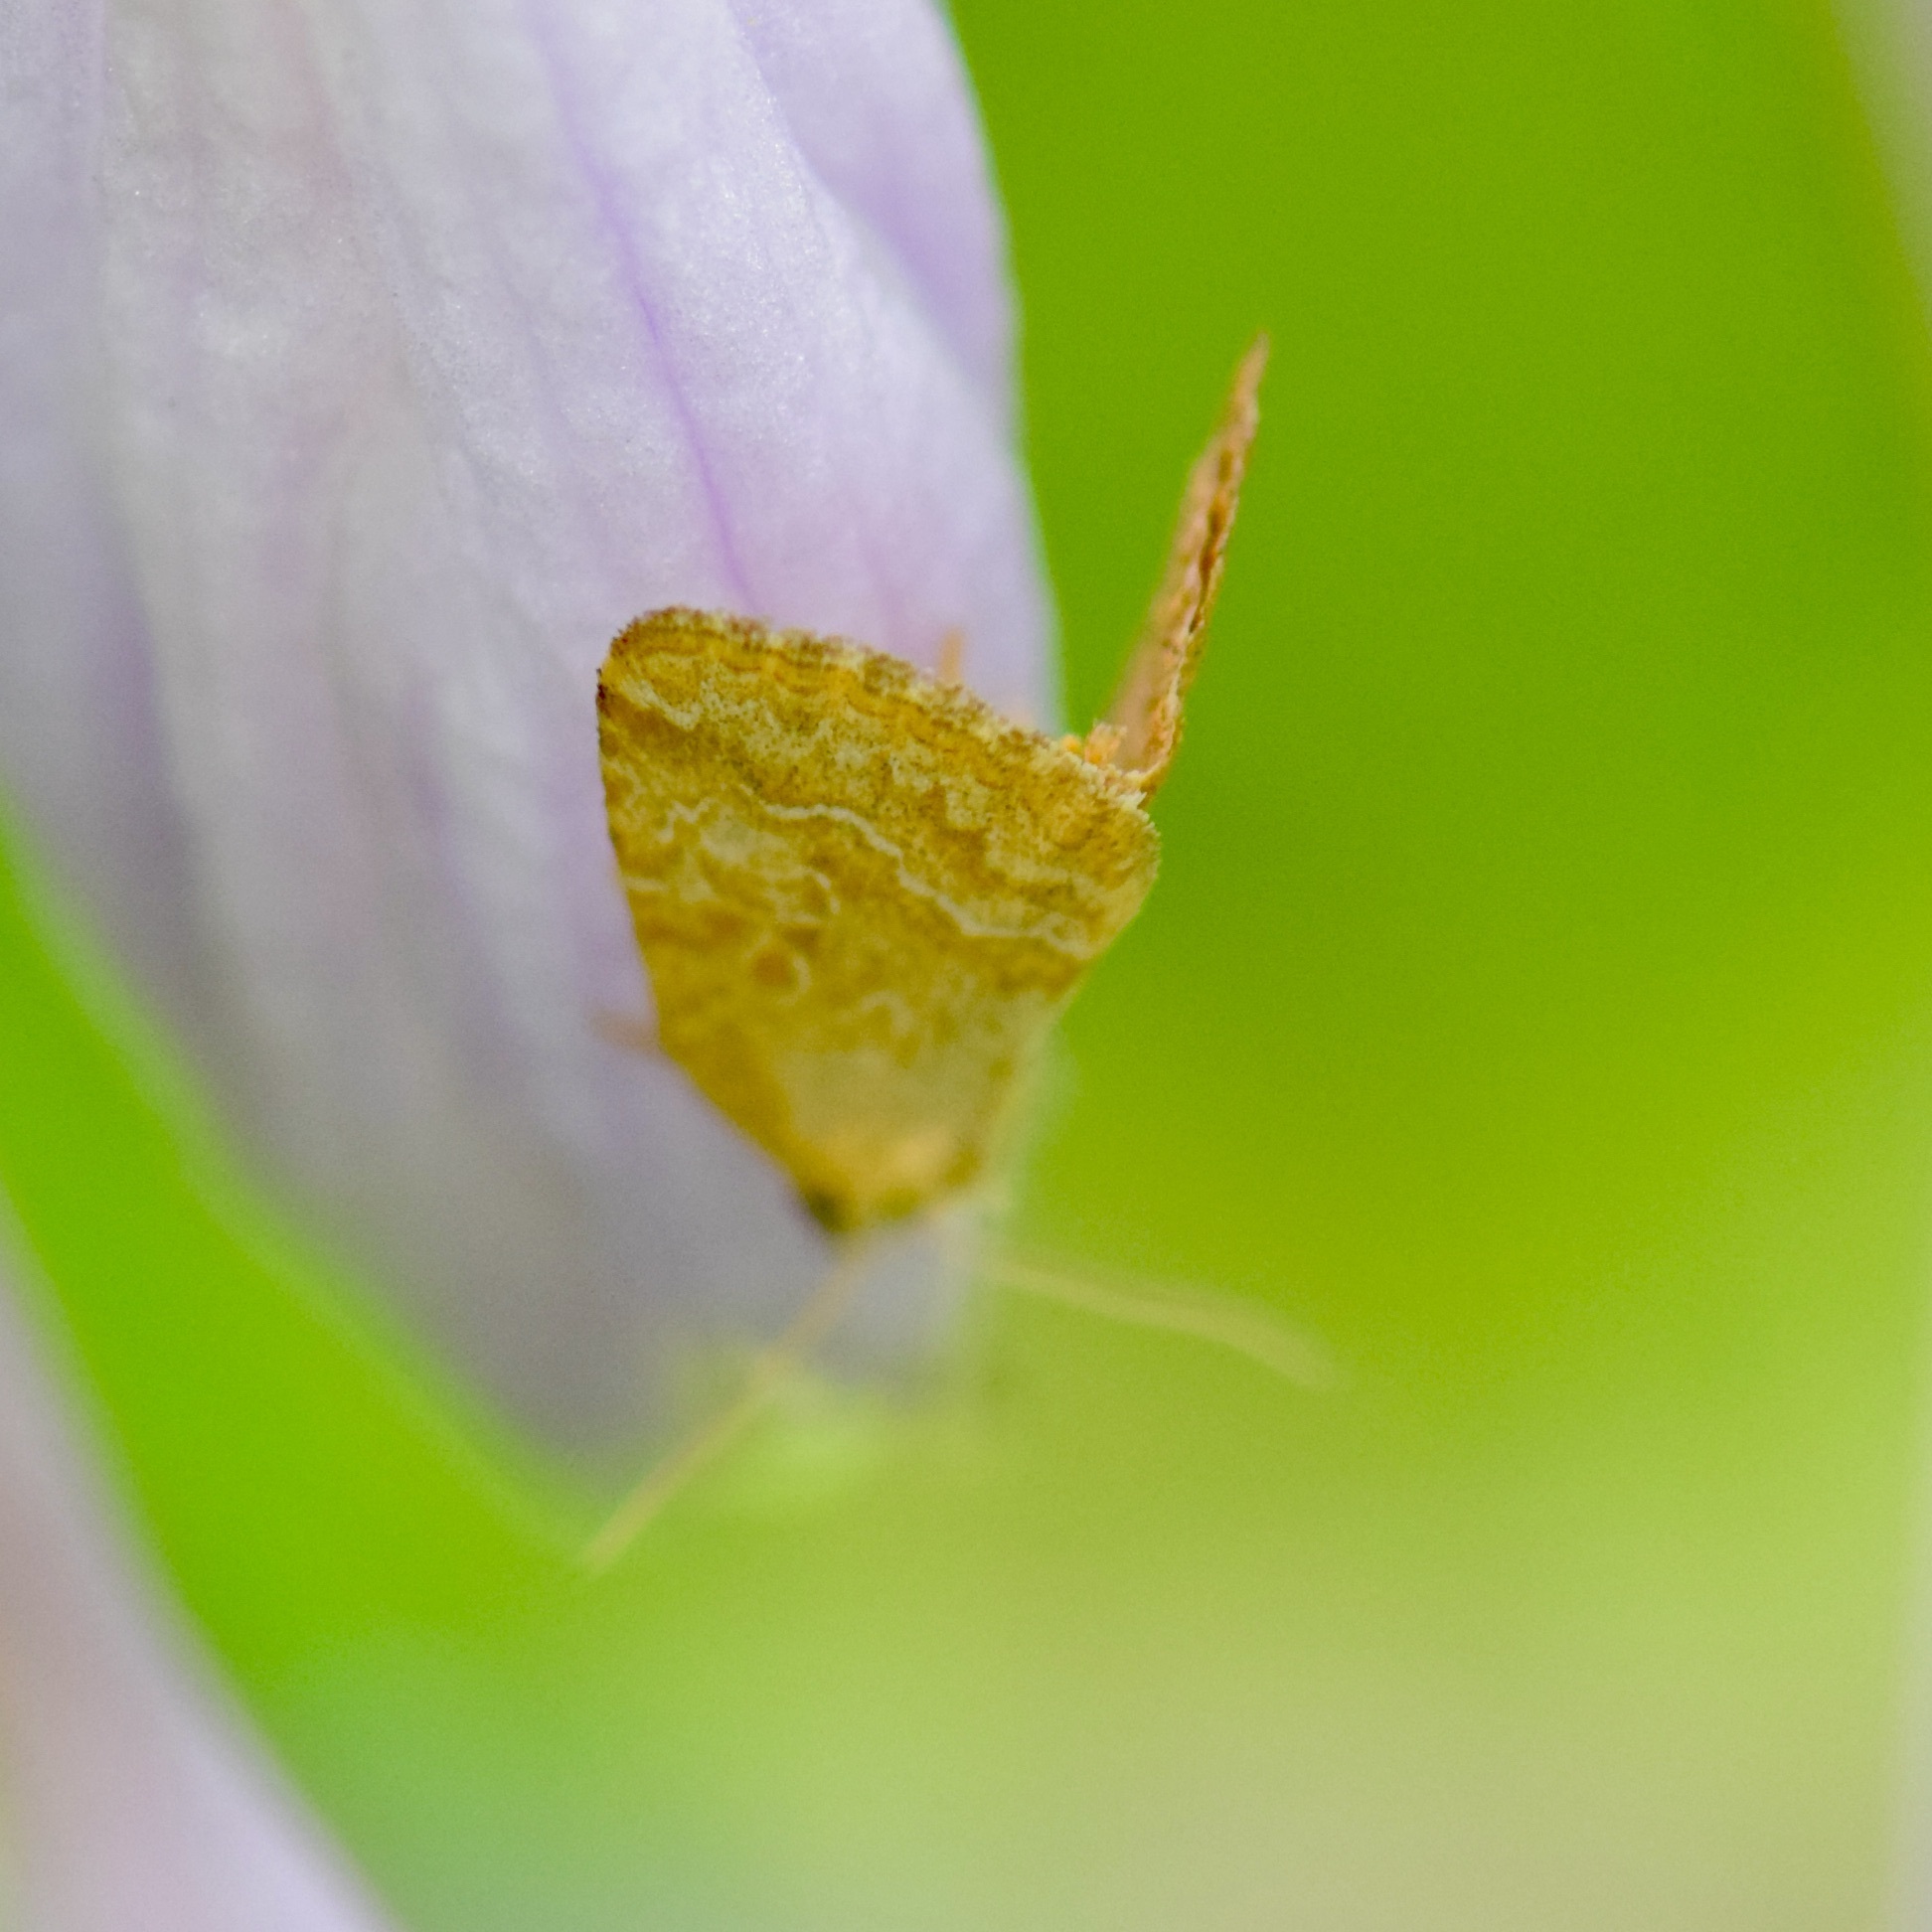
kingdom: Animalia
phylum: Arthropoda
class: Insecta
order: Lepidoptera
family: Noctuidae
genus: Protodeltote
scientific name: Protodeltote albidula
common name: Pale glyph
